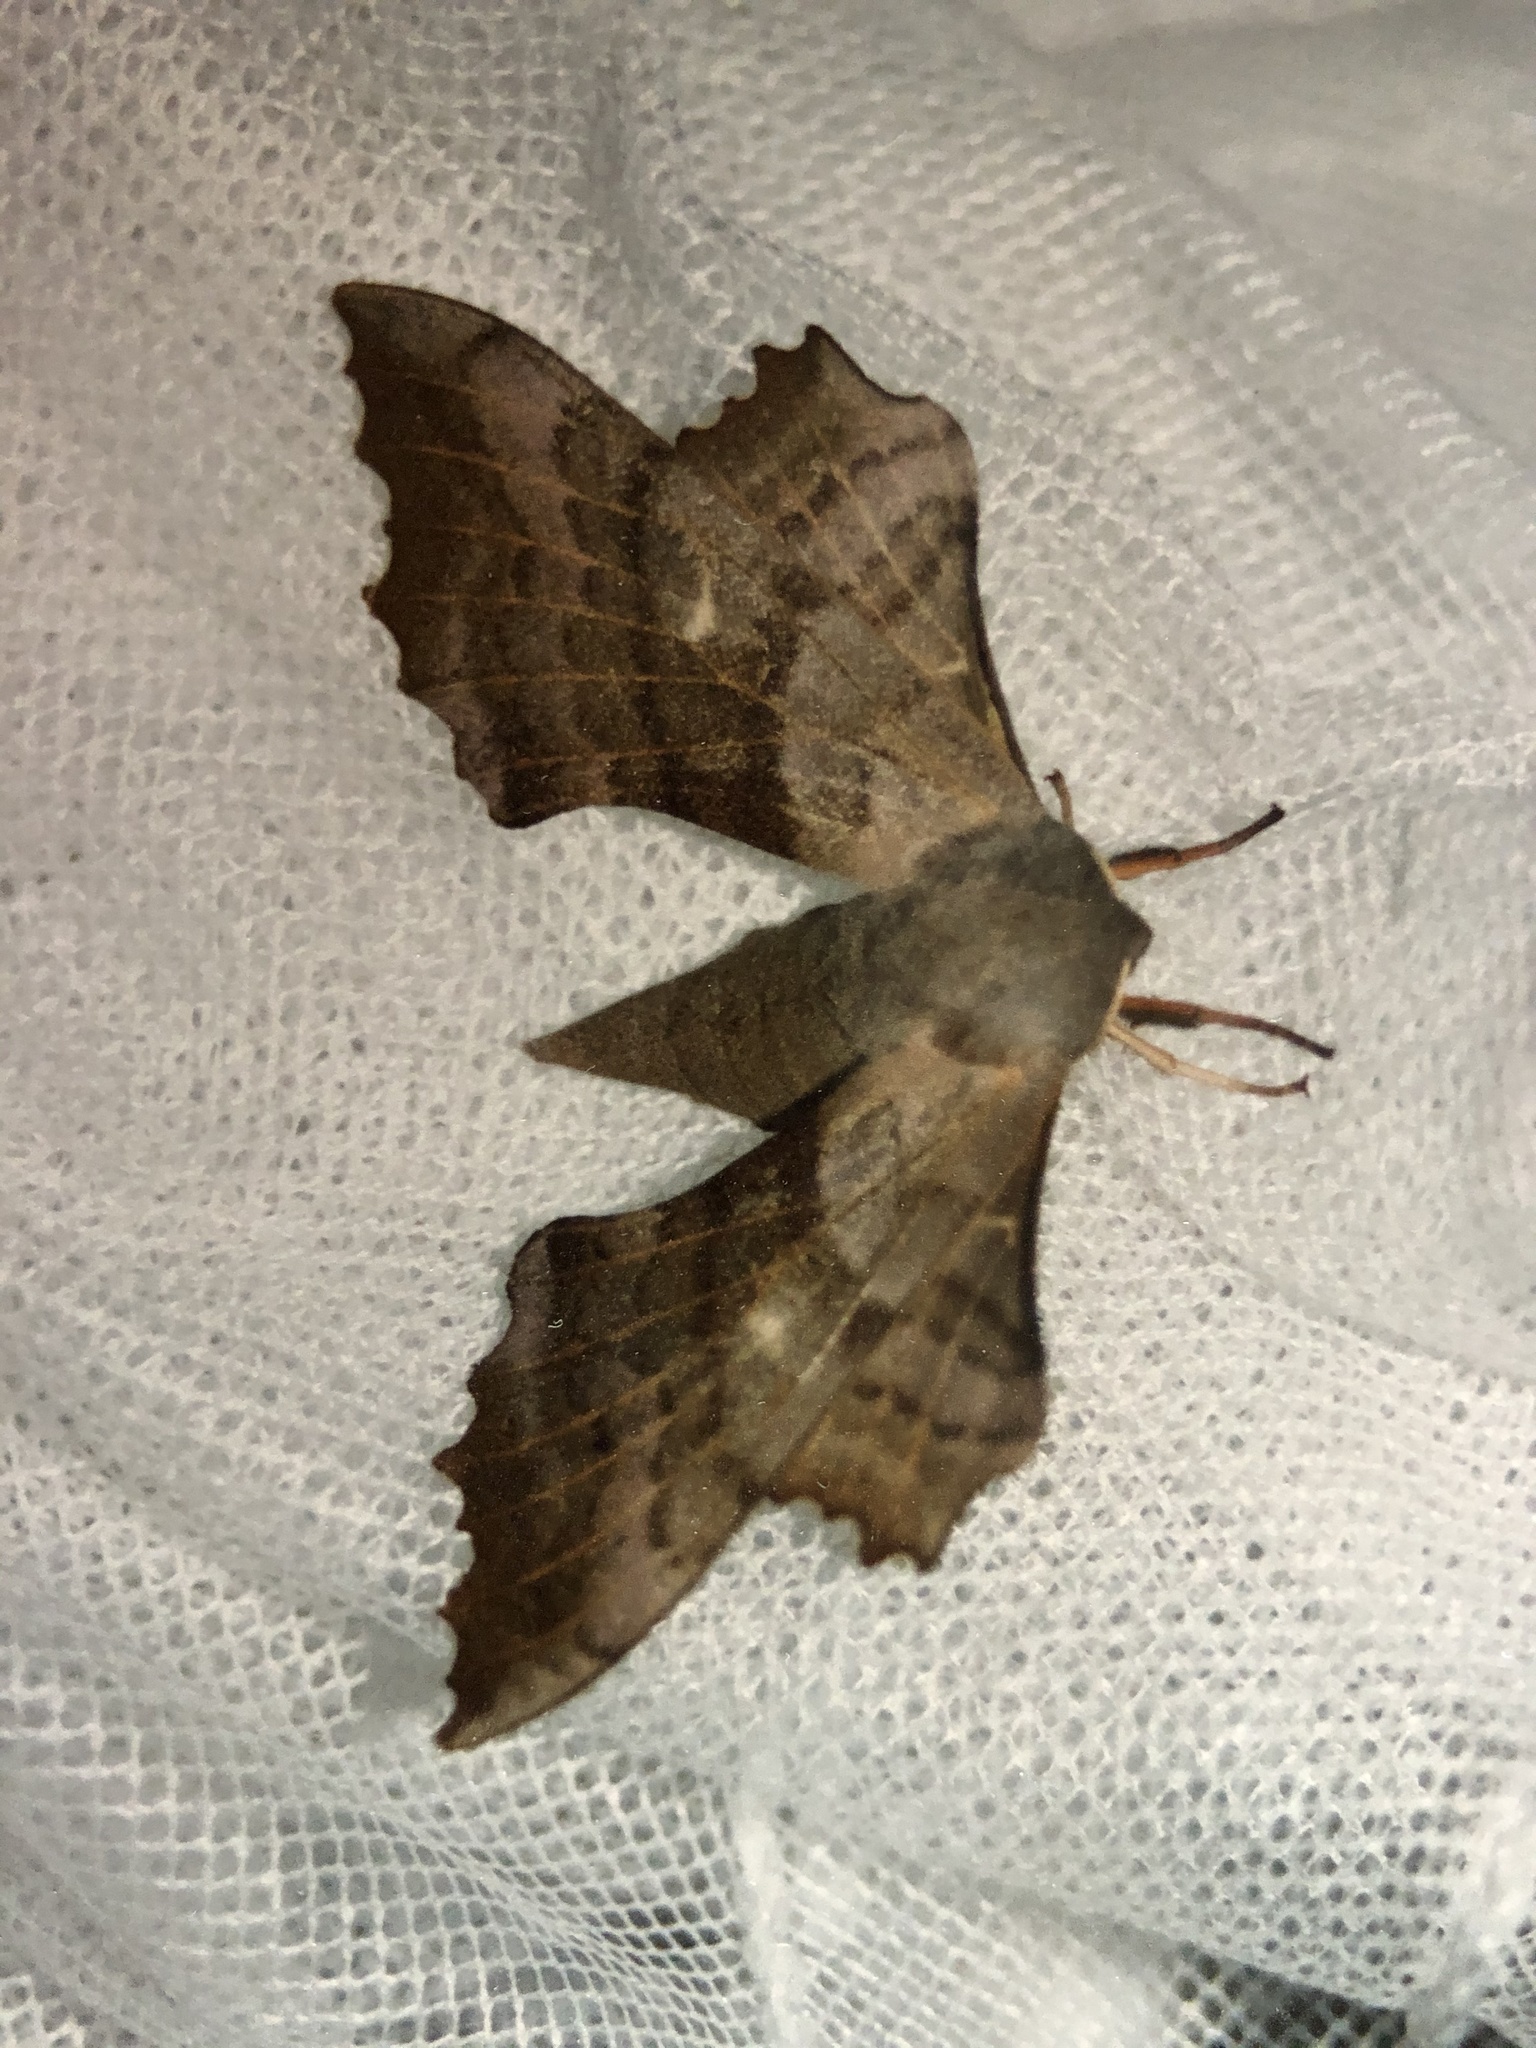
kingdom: Animalia
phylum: Arthropoda
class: Insecta
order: Lepidoptera
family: Sphingidae
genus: Laothoe
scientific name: Laothoe populi
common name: Poplar hawk-moth
